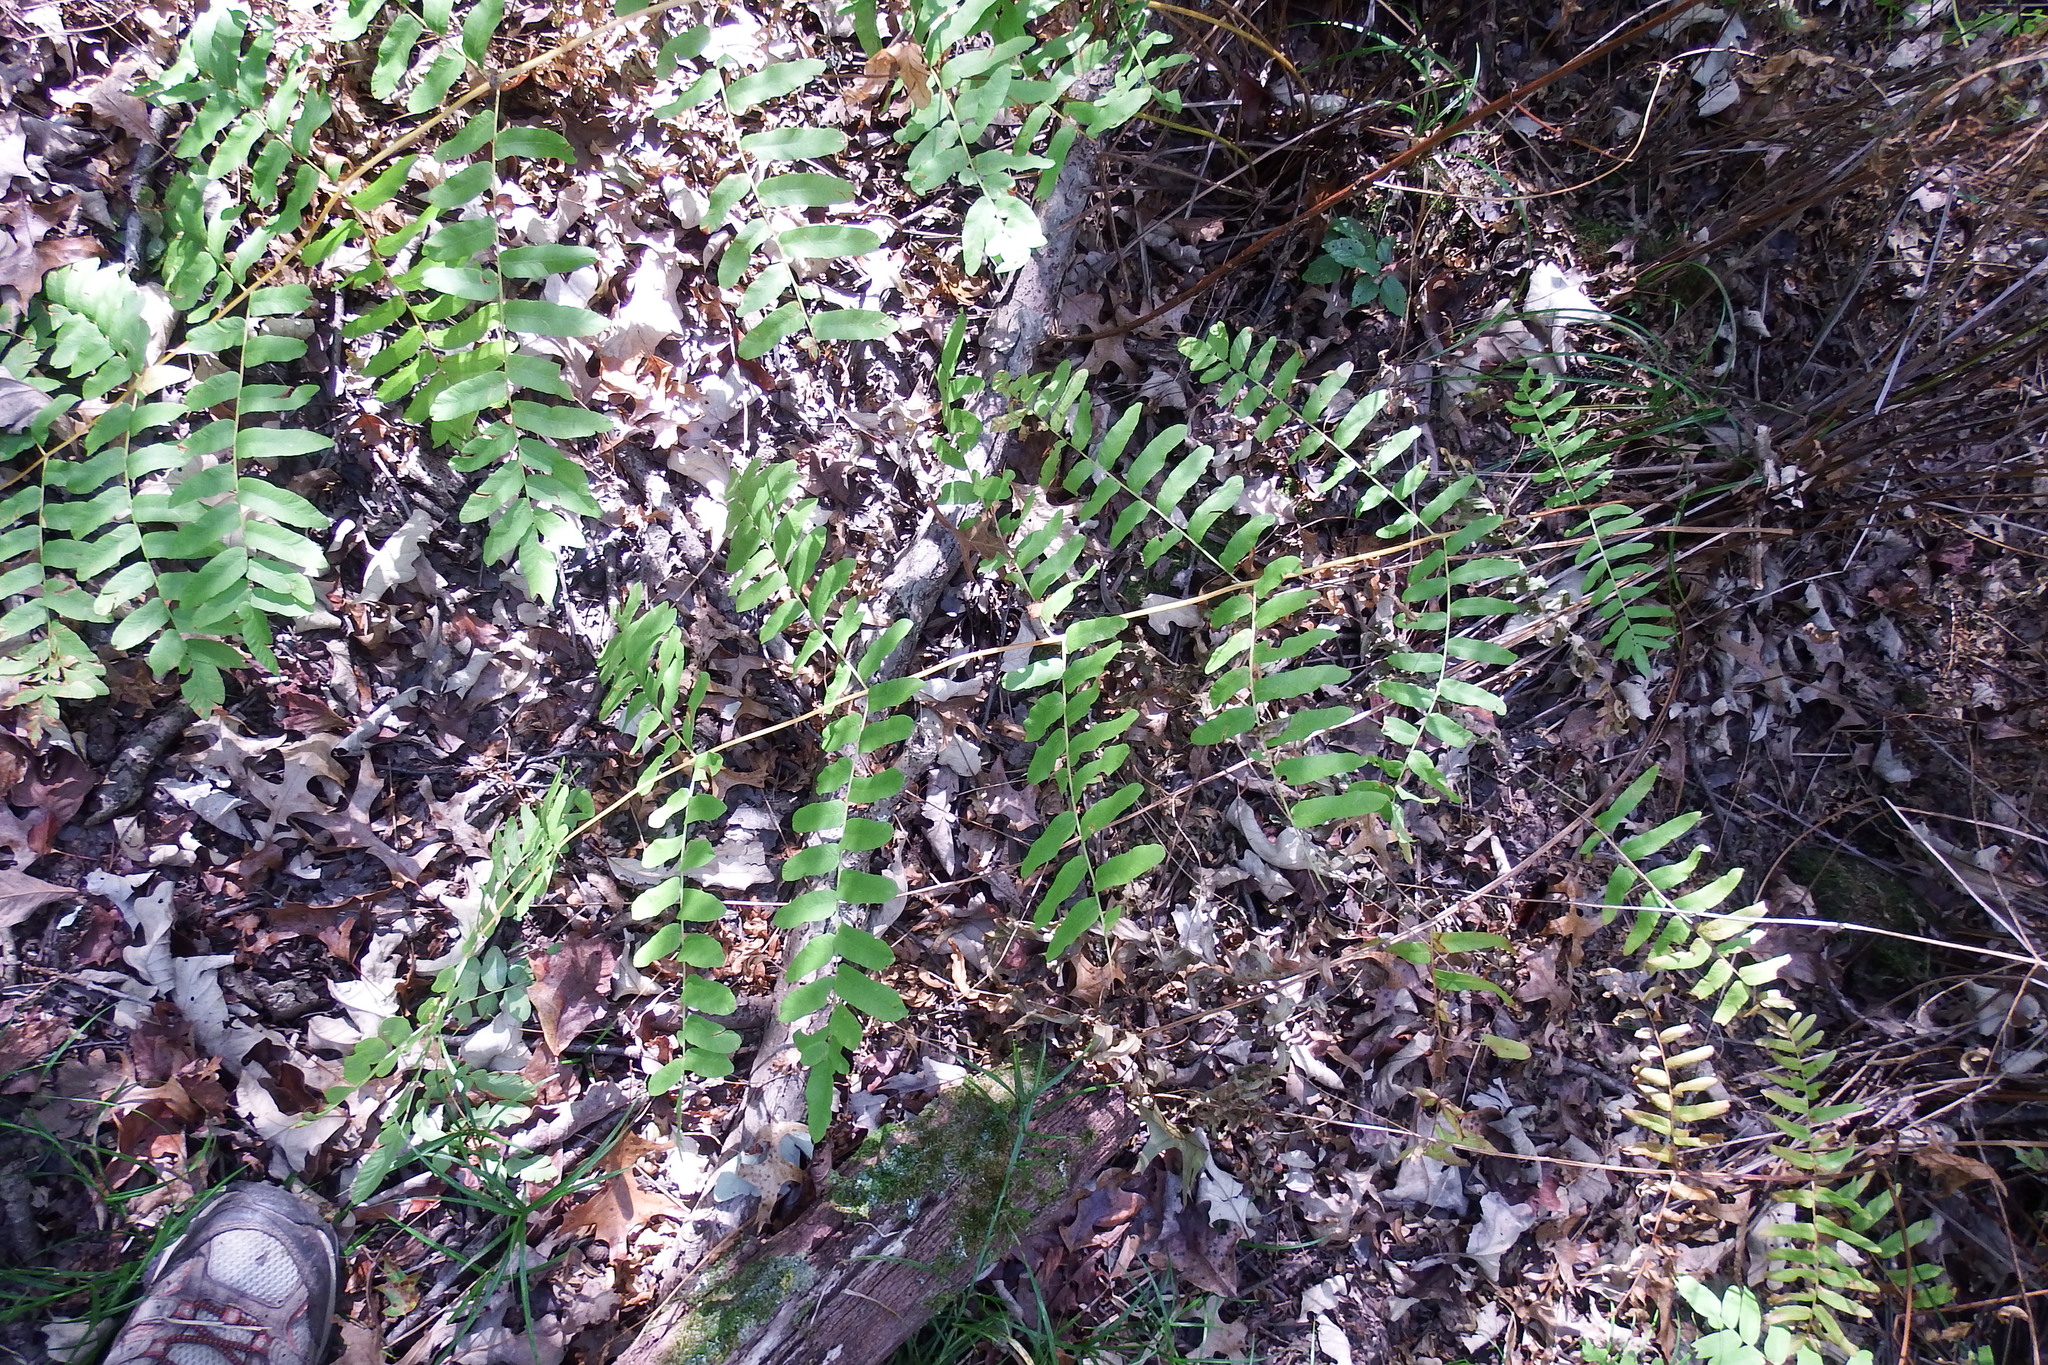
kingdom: Plantae
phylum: Tracheophyta
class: Polypodiopsida
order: Osmundales
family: Osmundaceae
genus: Osmunda
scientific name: Osmunda spectabilis
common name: American royal fern
